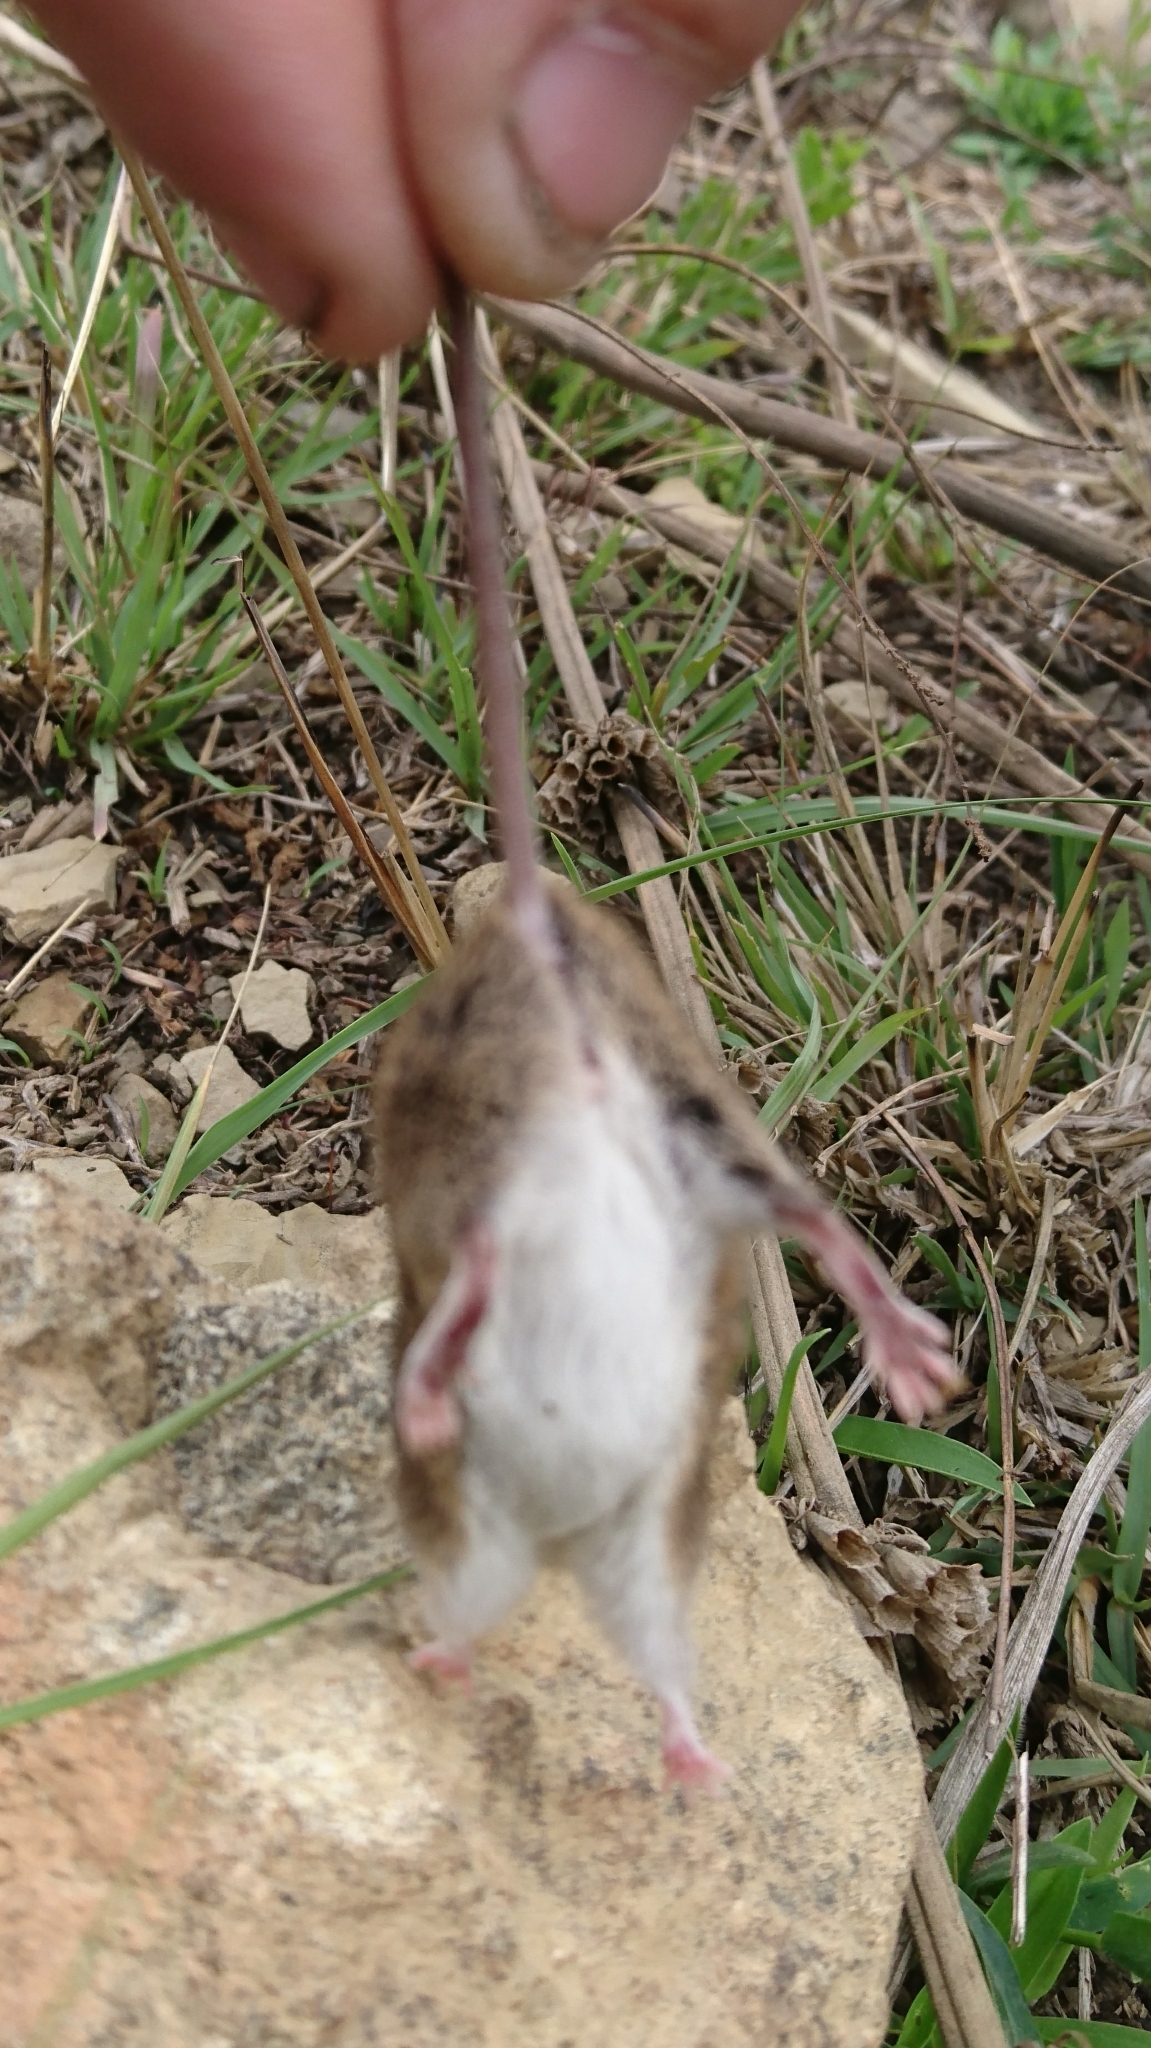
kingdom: Animalia
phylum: Chordata
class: Mammalia
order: Rodentia
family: Muridae
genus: Mus
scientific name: Mus minutoides
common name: Southern african pygmy mouse
